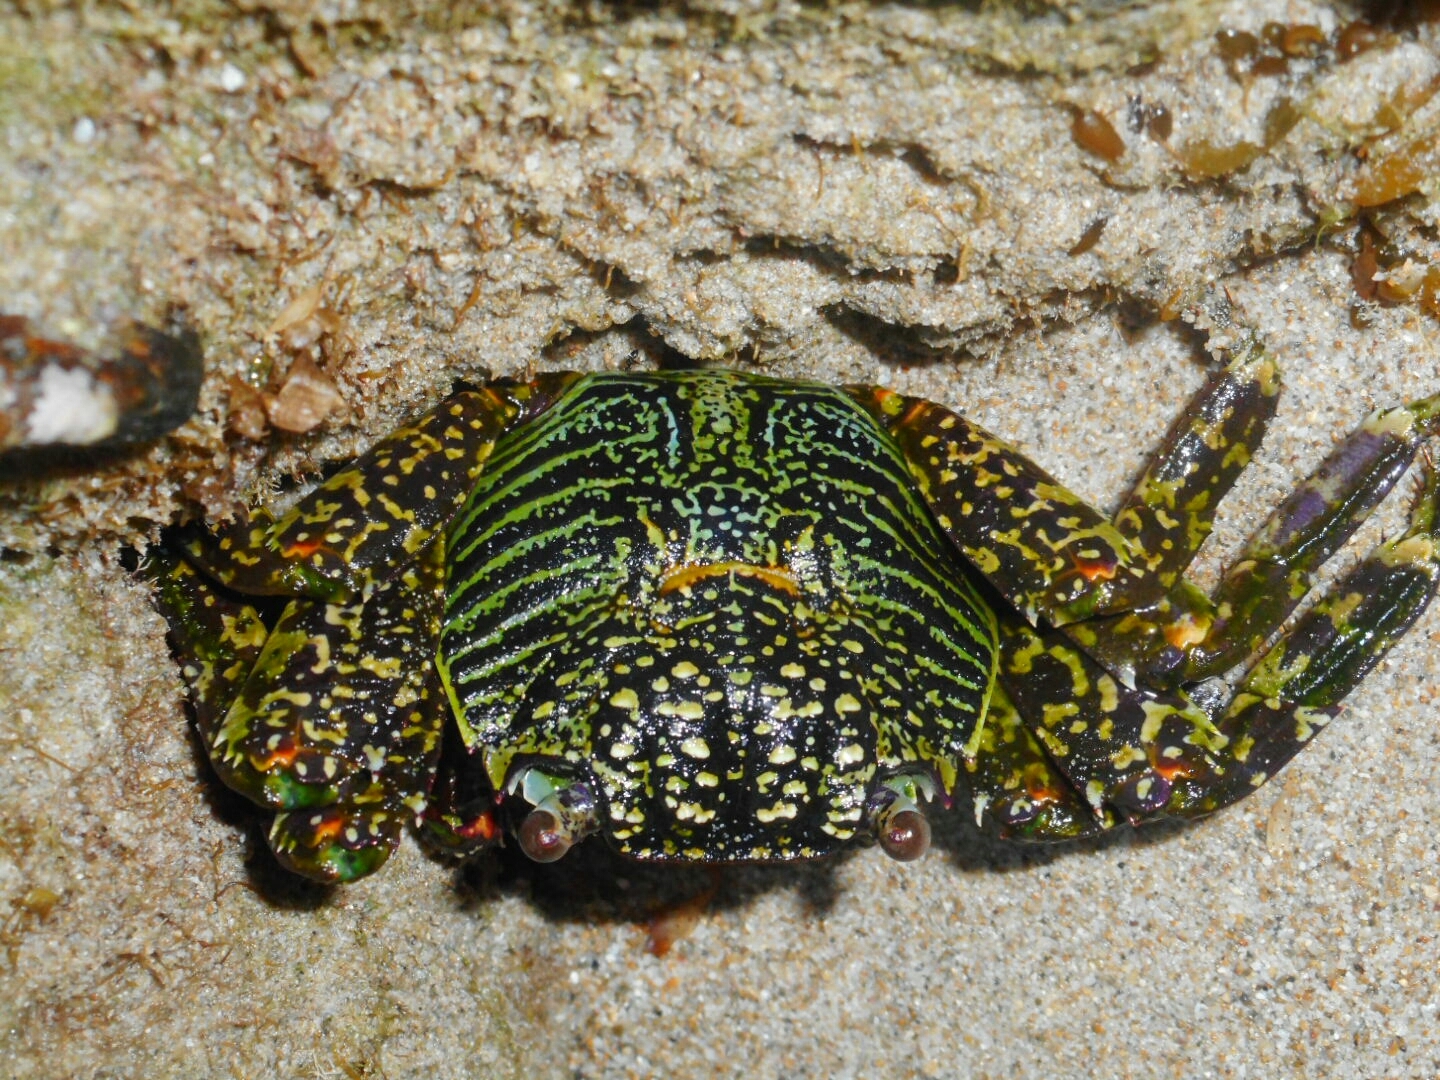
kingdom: Animalia
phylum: Arthropoda
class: Malacostraca
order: Decapoda
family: Grapsidae
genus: Grapsus
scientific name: Grapsus albolineatus
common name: Mottled lightfoot crab
